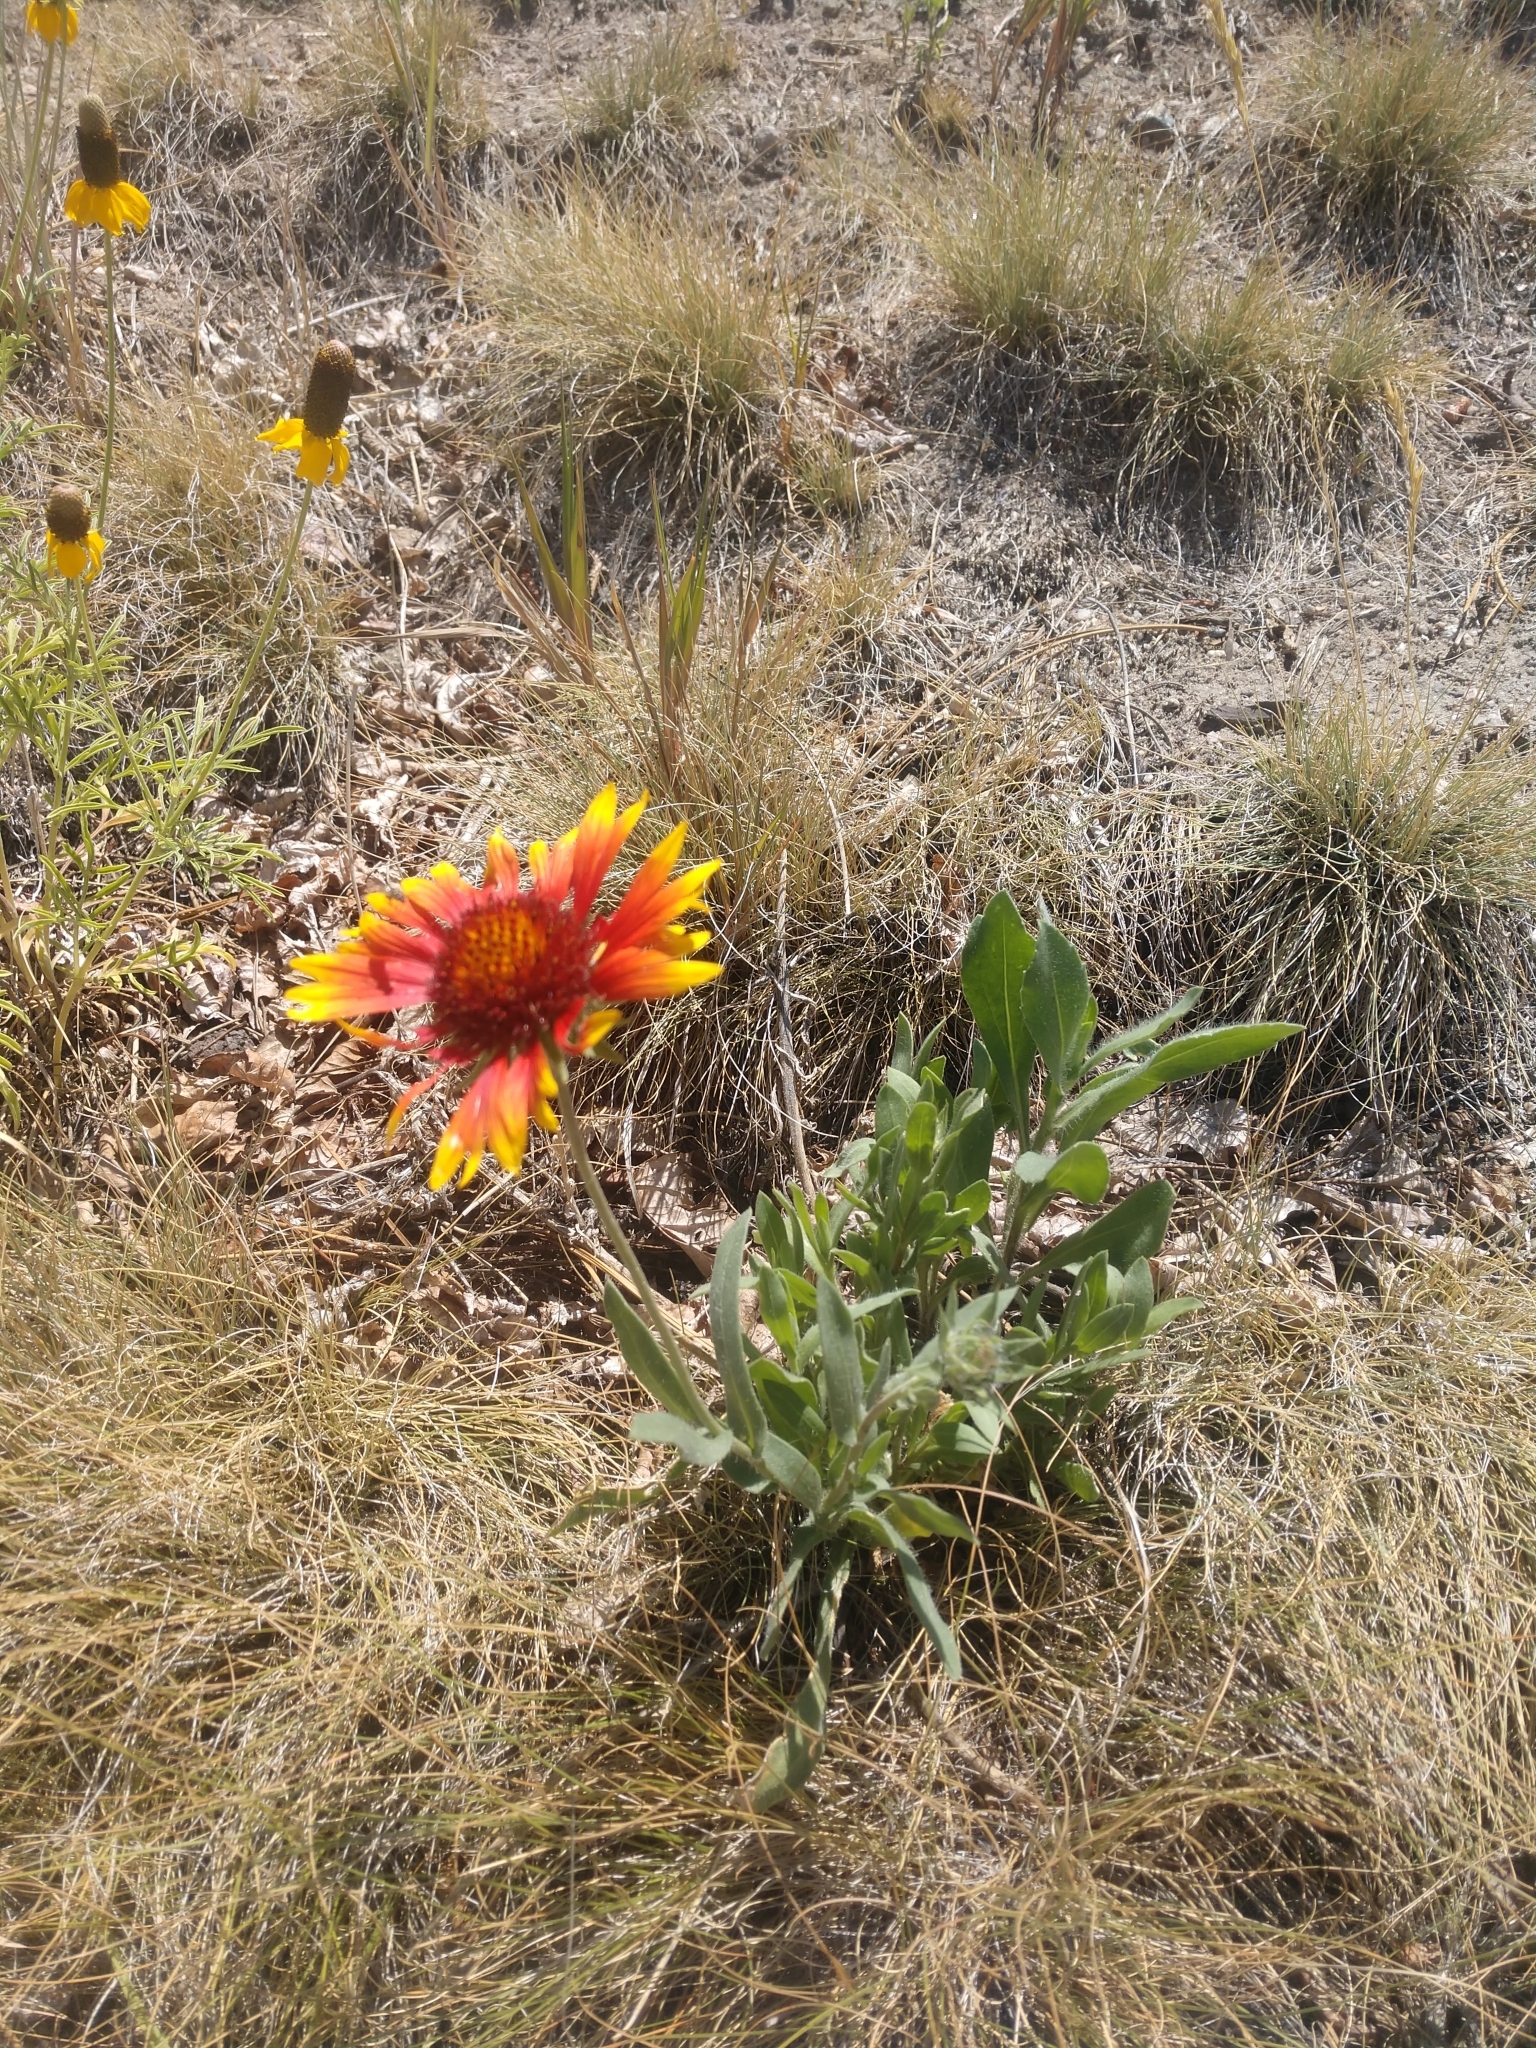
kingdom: Plantae
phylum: Tracheophyta
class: Magnoliopsida
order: Asterales
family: Asteraceae
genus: Gaillardia
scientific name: Gaillardia grandiflora
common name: Blanket flower
